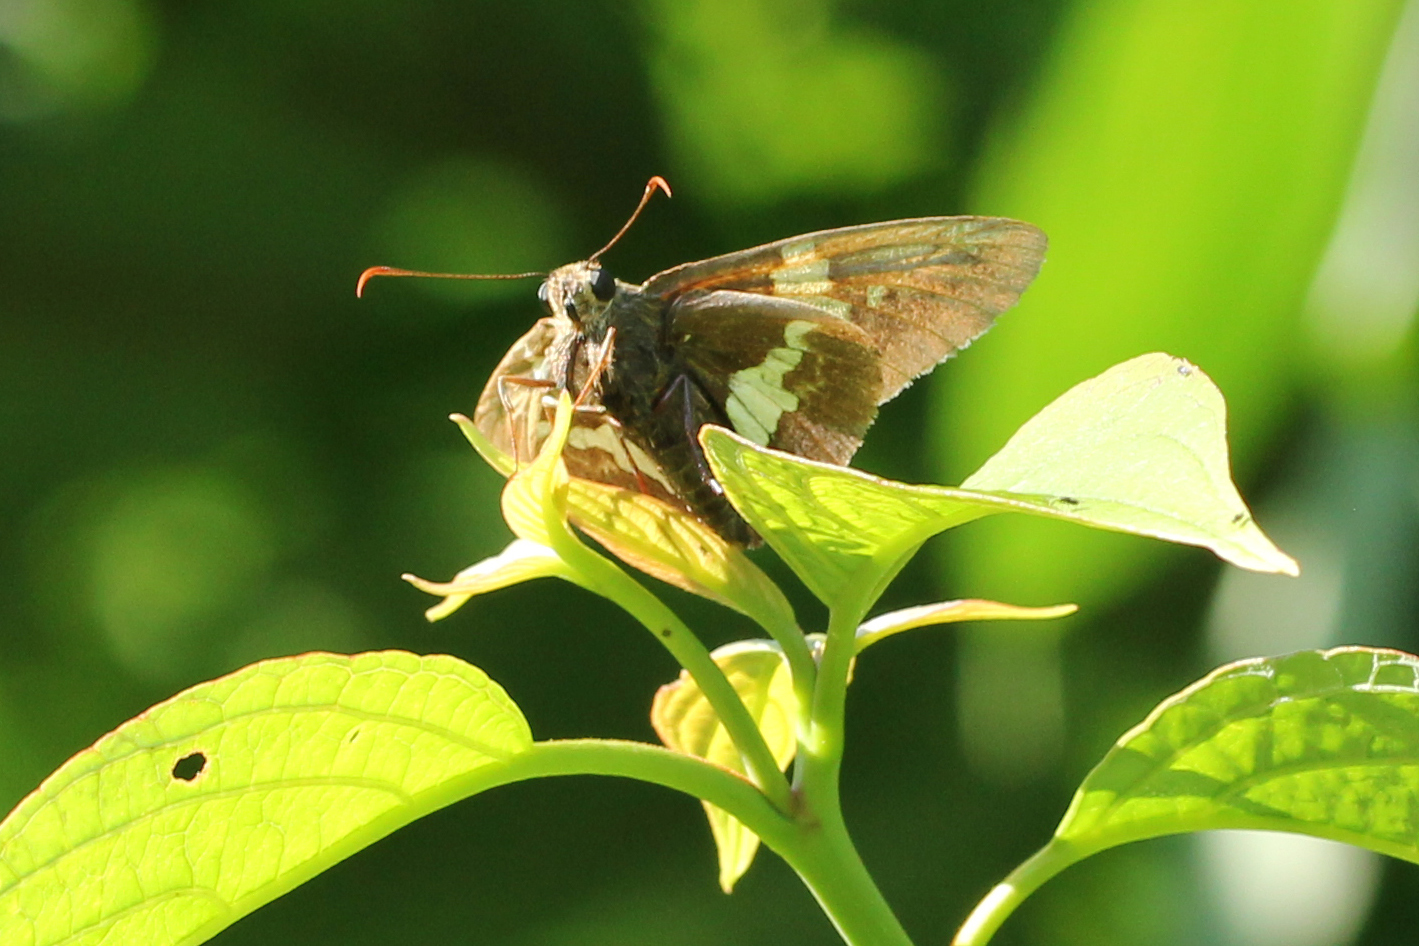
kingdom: Animalia
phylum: Arthropoda
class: Insecta
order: Lepidoptera
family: Hesperiidae
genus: Epargyreus
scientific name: Epargyreus clarus
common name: Silver-spotted skipper
